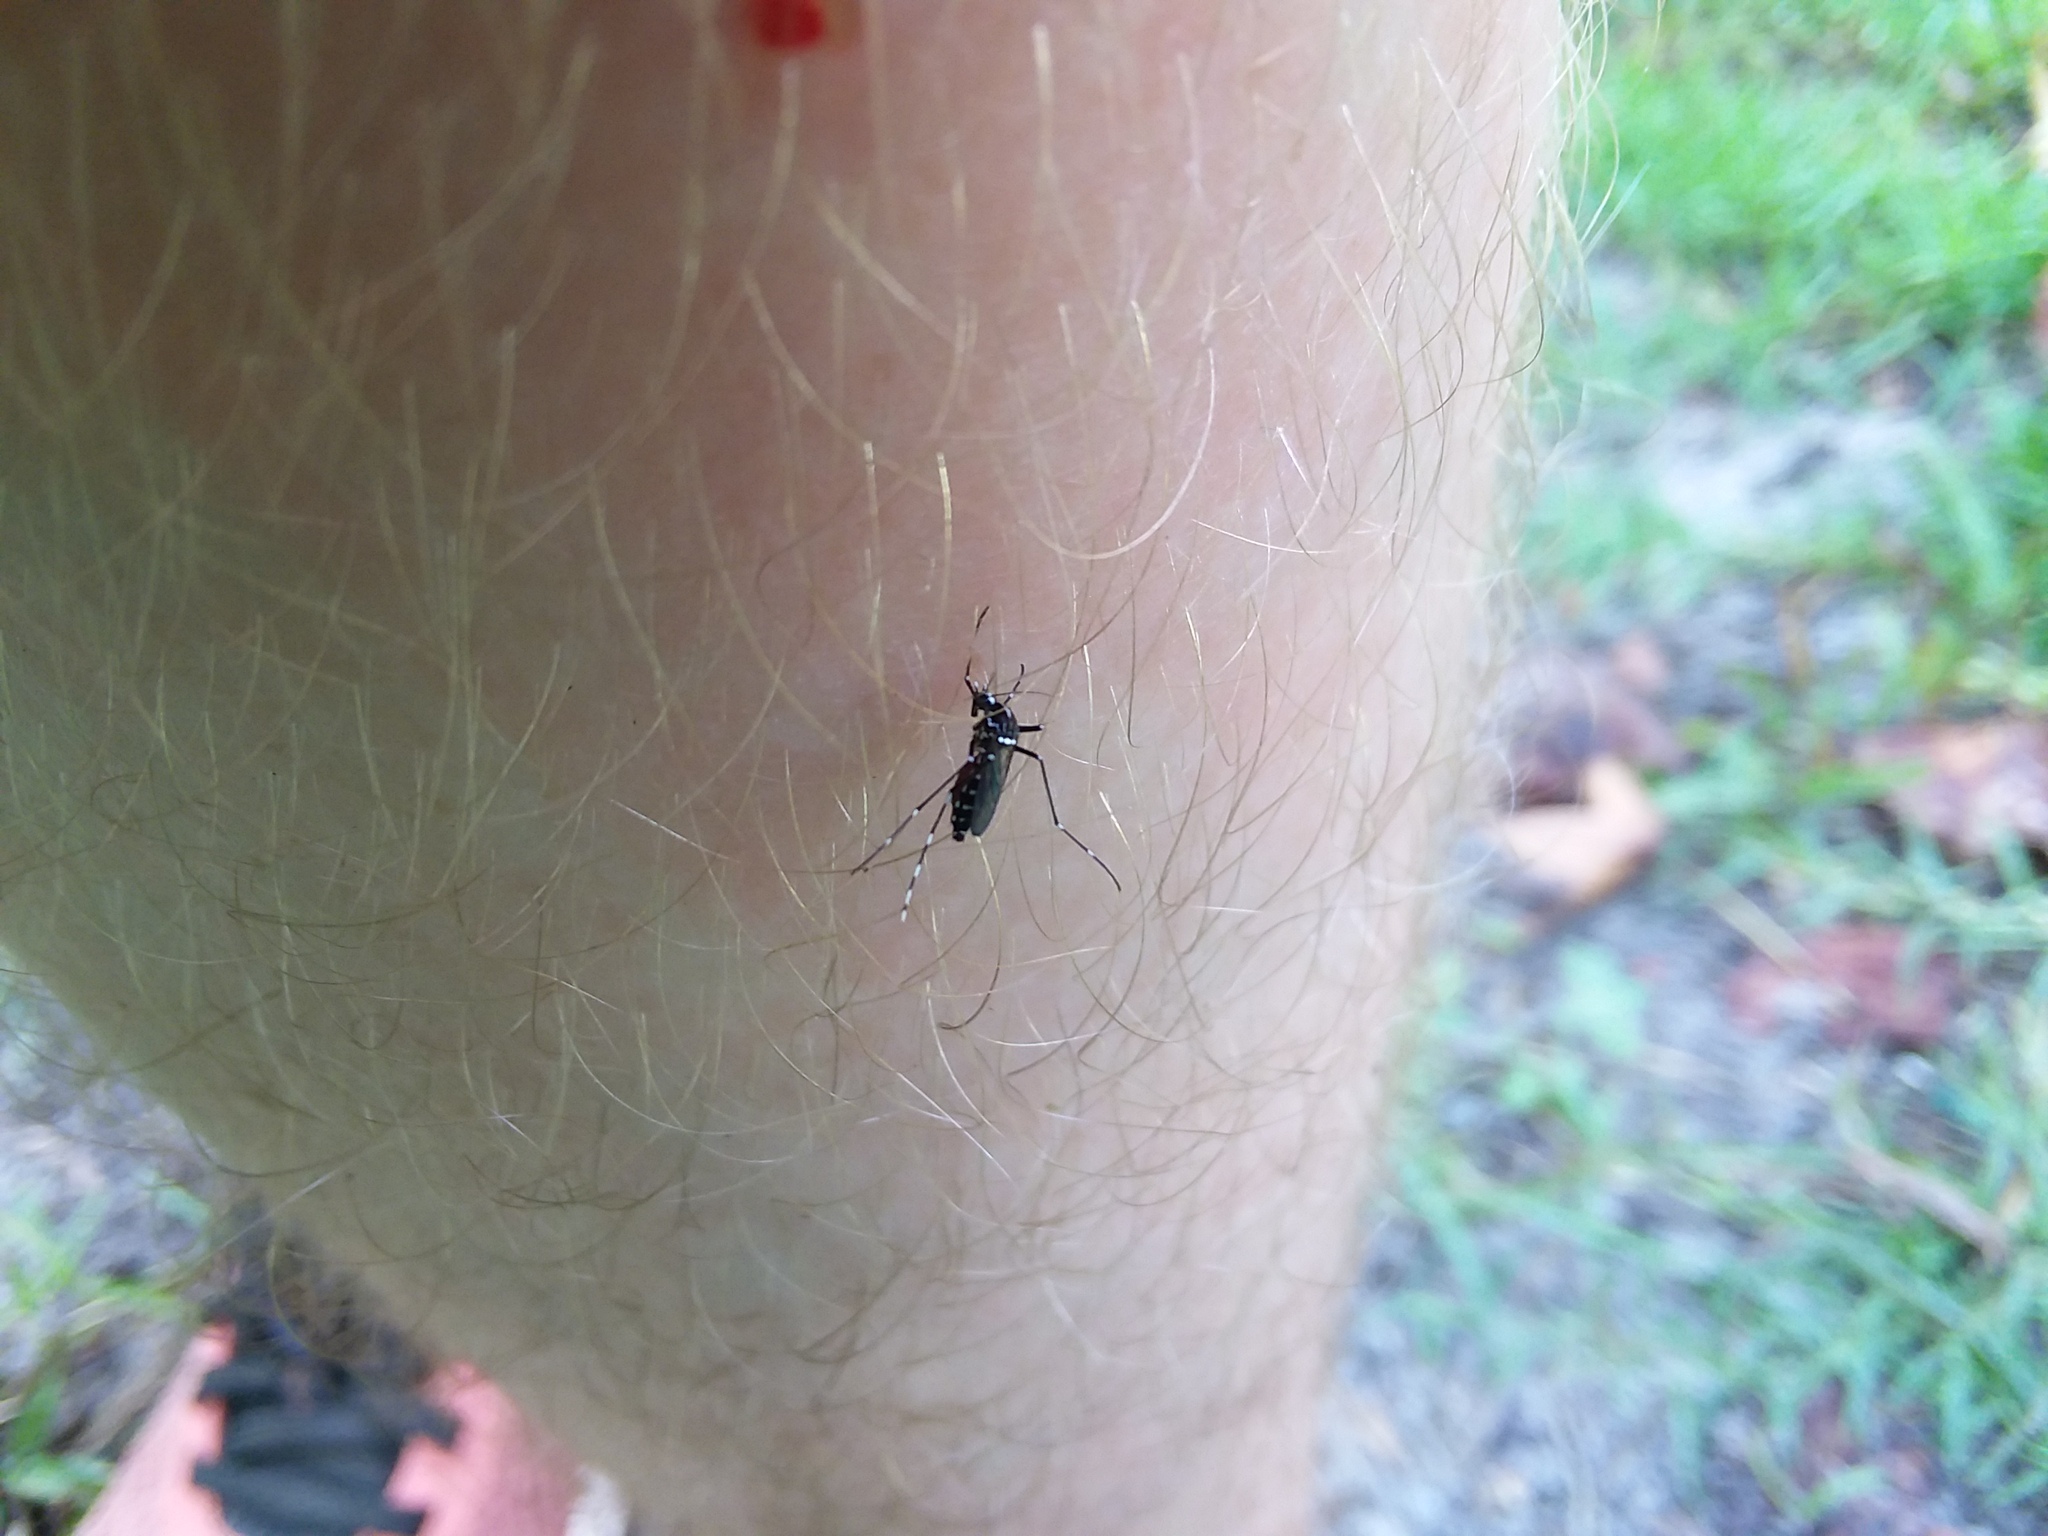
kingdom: Animalia
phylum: Arthropoda
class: Insecta
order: Diptera
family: Culicidae
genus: Aedes
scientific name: Aedes albopictus
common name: Tiger mosquito
